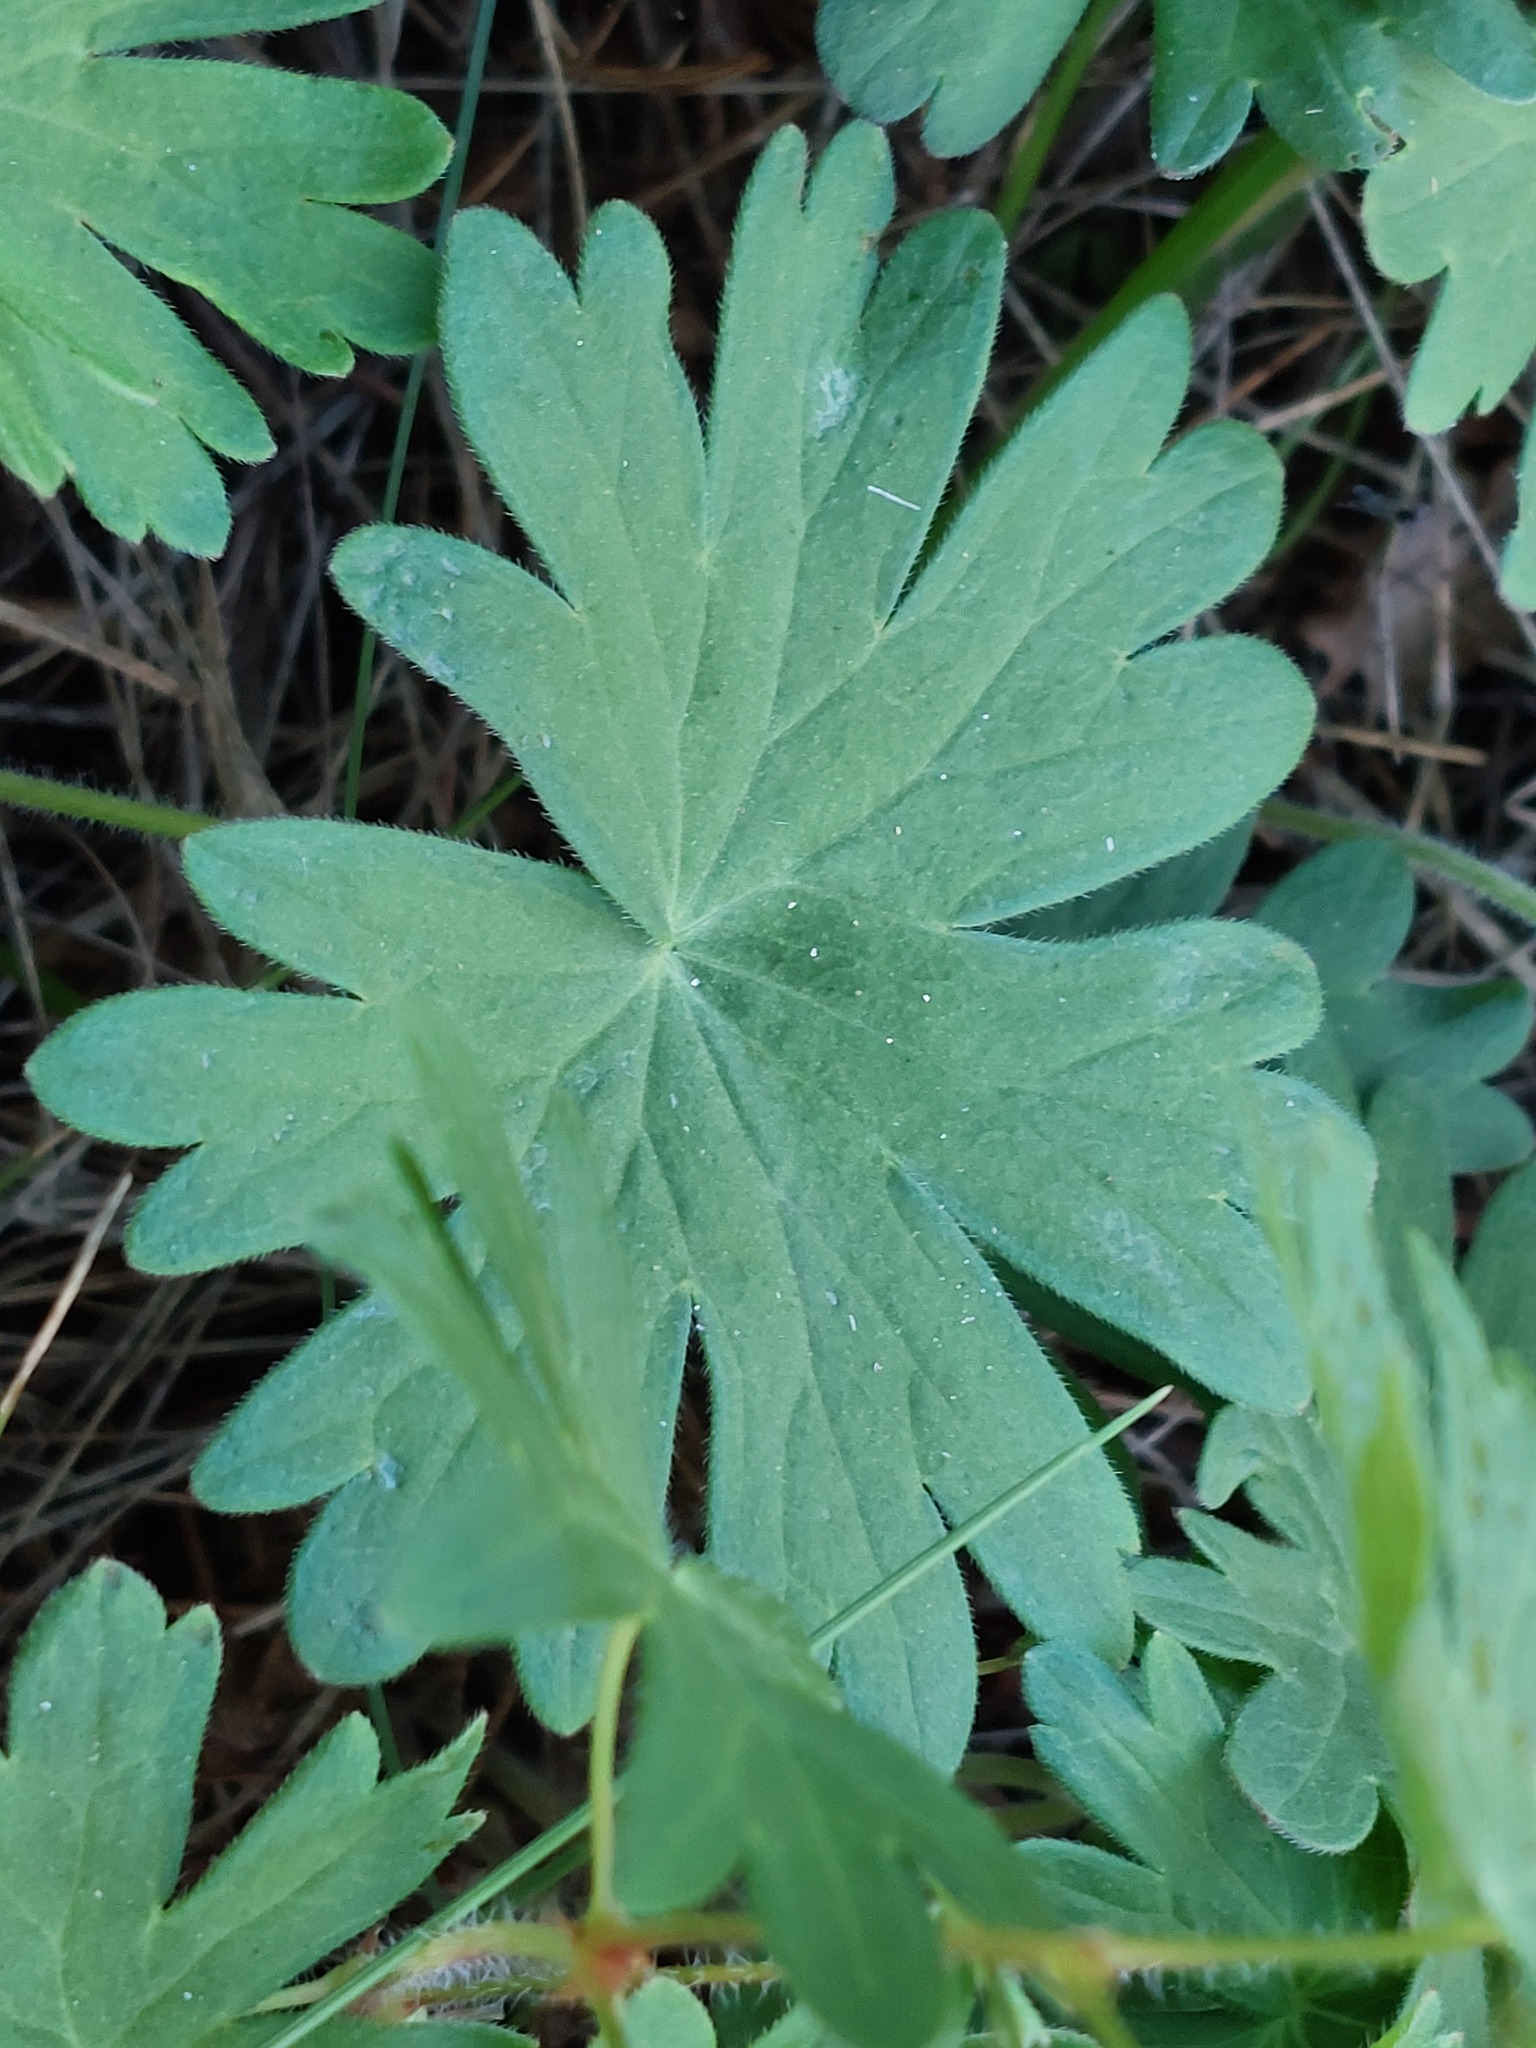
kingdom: Plantae
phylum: Tracheophyta
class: Magnoliopsida
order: Geraniales
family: Geraniaceae
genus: Geranium
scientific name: Geranium sylvaticum
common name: Wood crane's-bill
